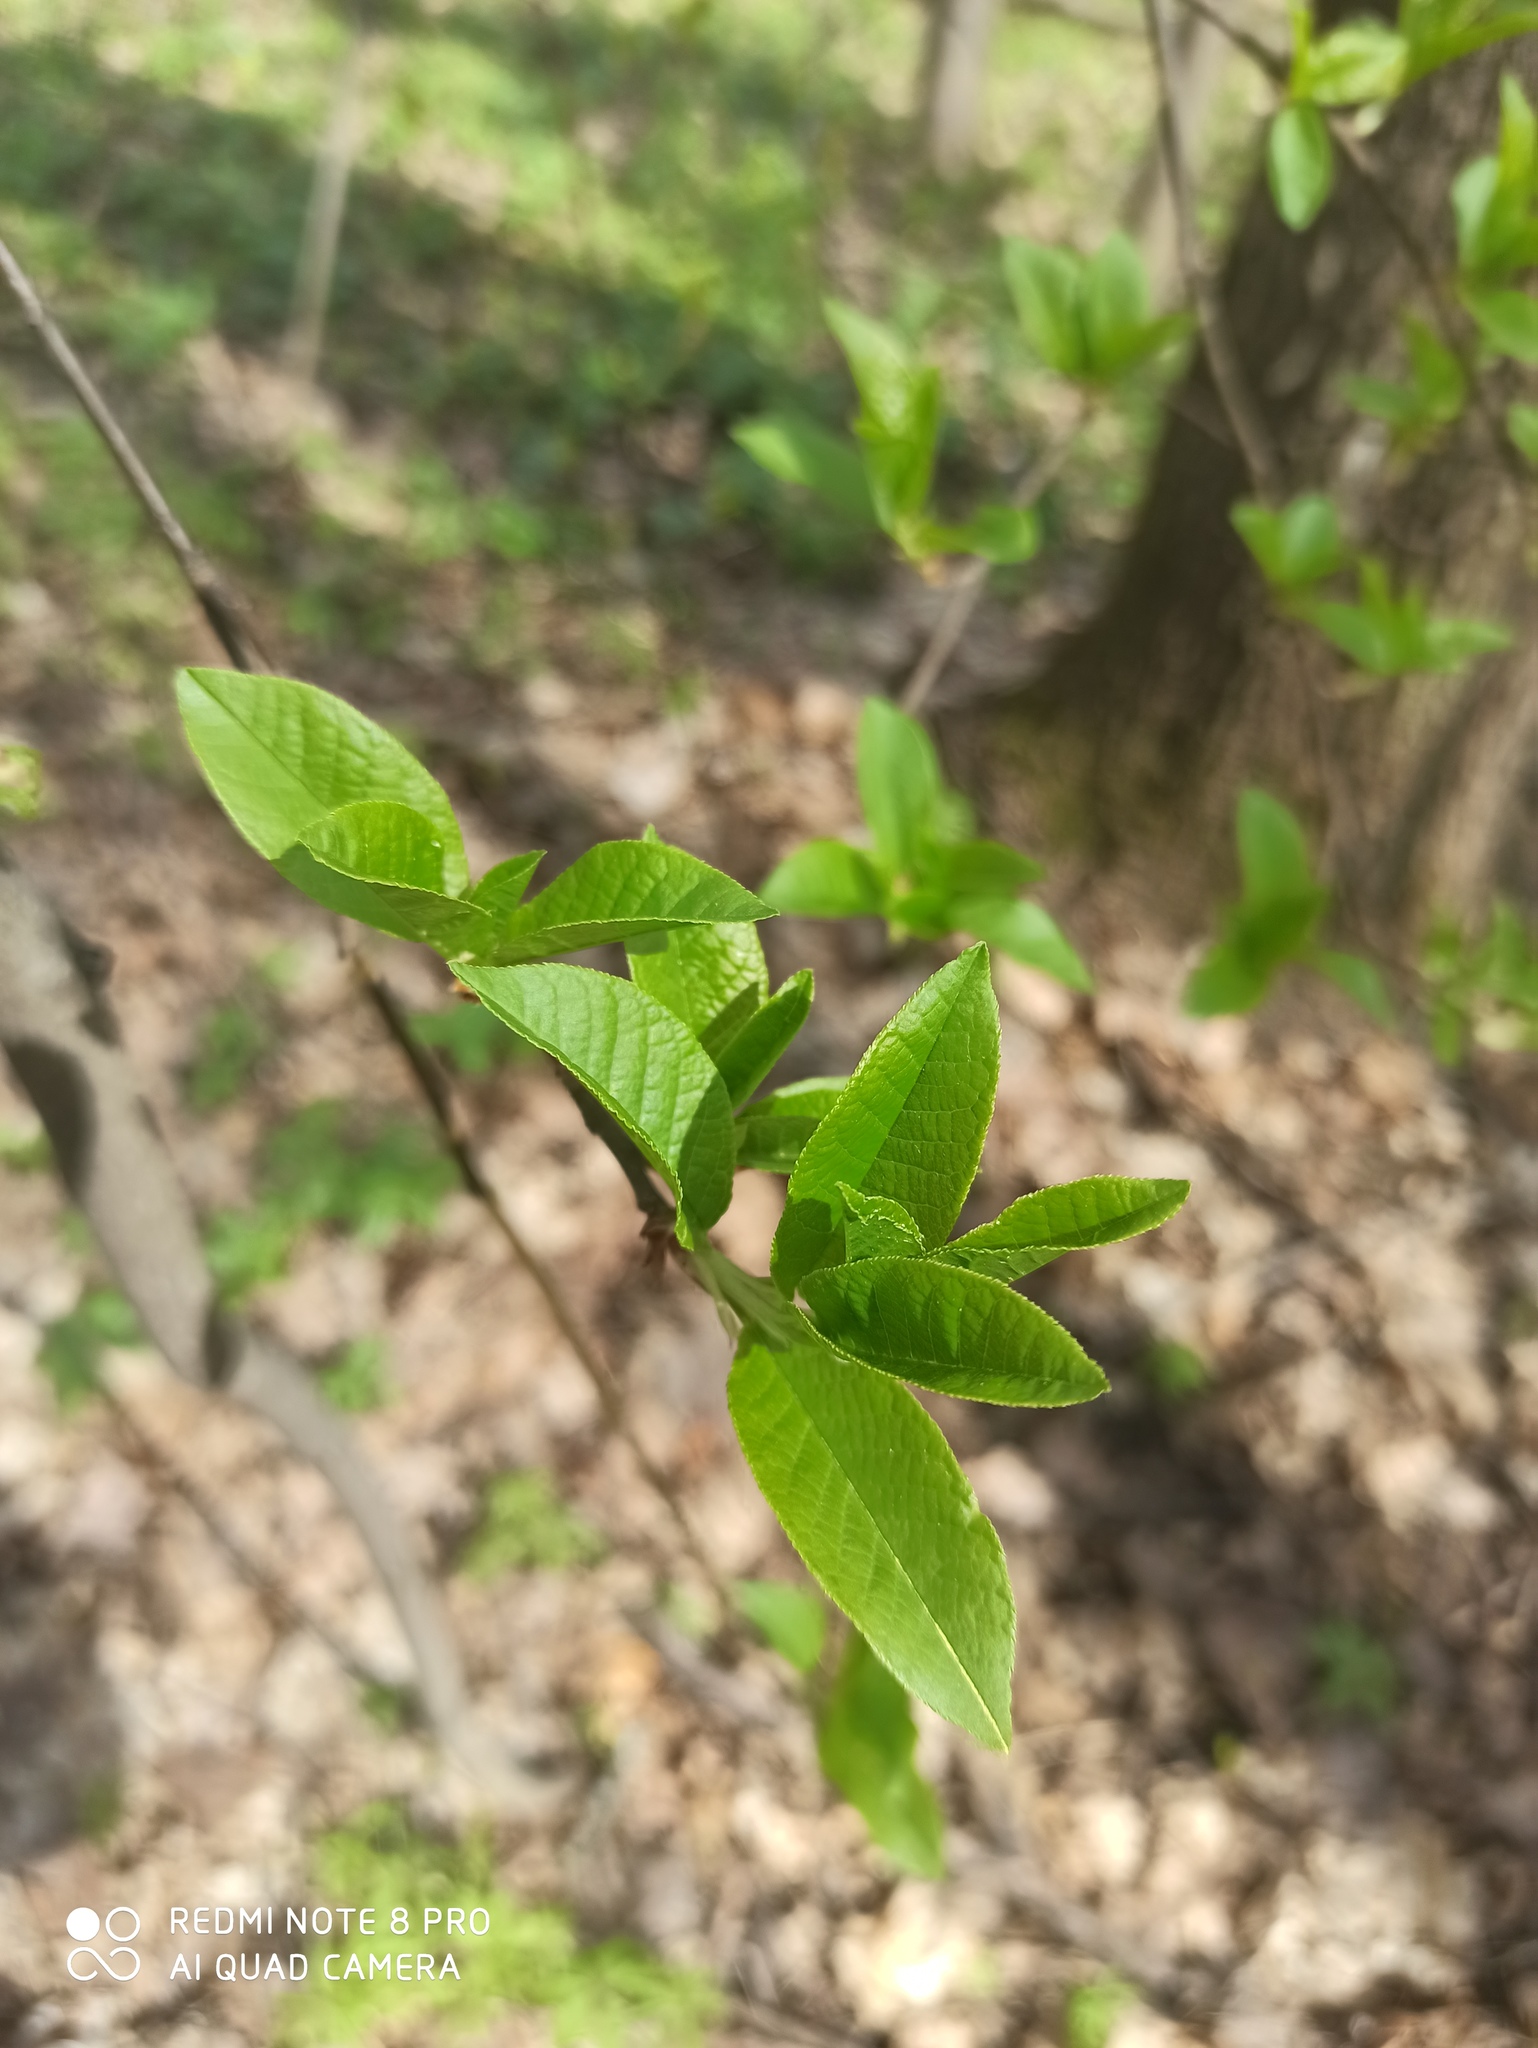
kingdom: Plantae
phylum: Tracheophyta
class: Magnoliopsida
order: Rosales
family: Rosaceae
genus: Prunus
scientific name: Prunus padus
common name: Bird cherry
